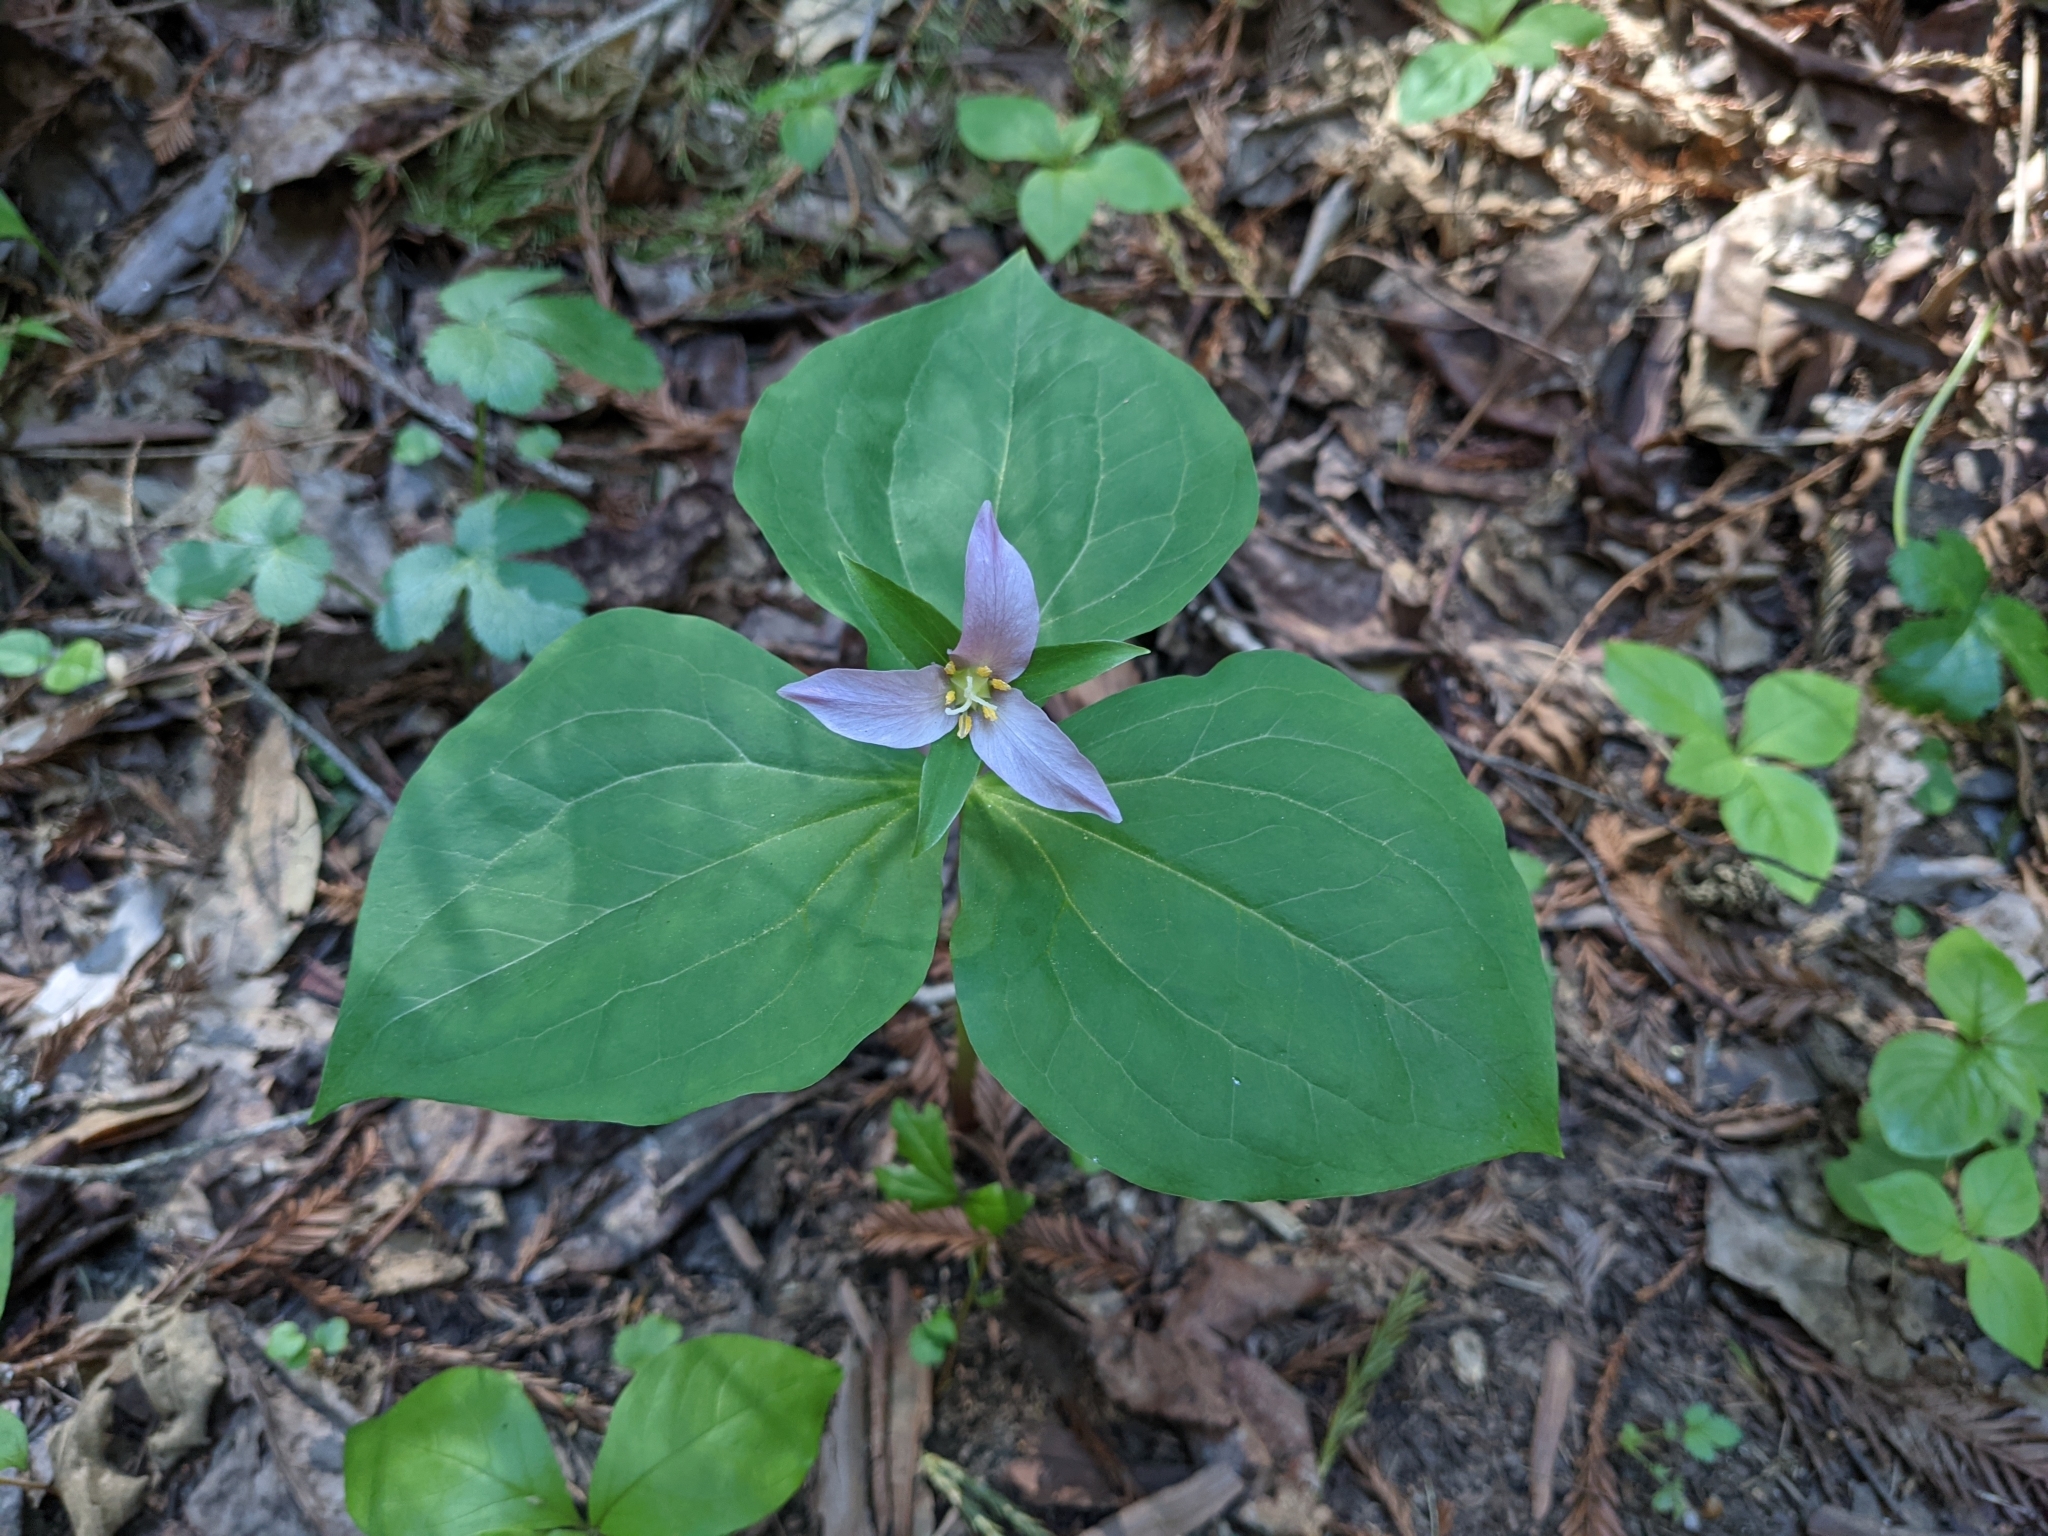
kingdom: Plantae
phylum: Tracheophyta
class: Liliopsida
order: Liliales
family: Melanthiaceae
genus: Trillium
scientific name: Trillium ovatum
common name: Pacific trillium
